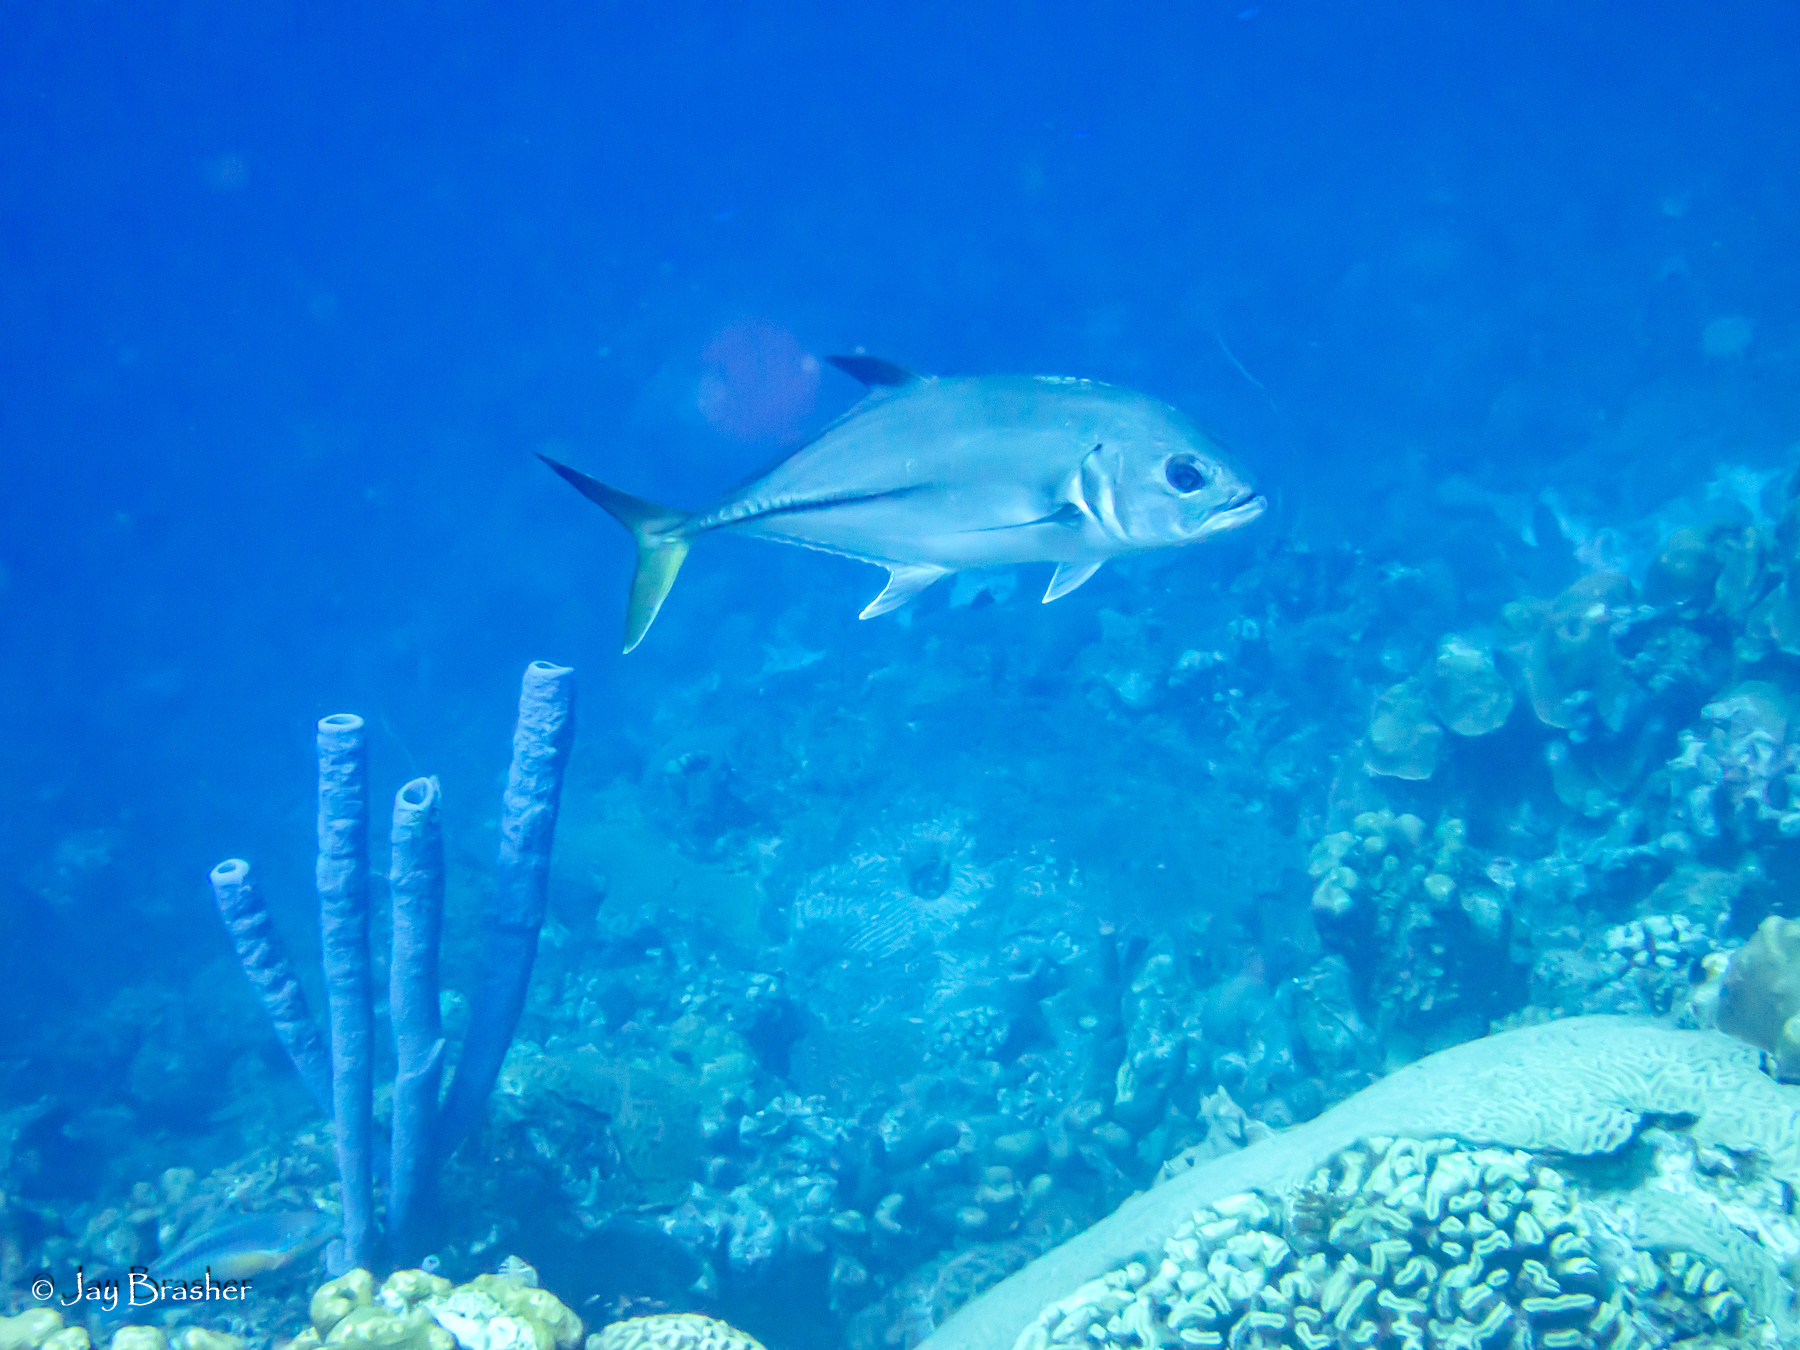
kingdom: Animalia
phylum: Porifera
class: Demospongiae
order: Verongiida
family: Aplysinidae
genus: Aplysina
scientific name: Aplysina archeri
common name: Stove-pipe sponge
